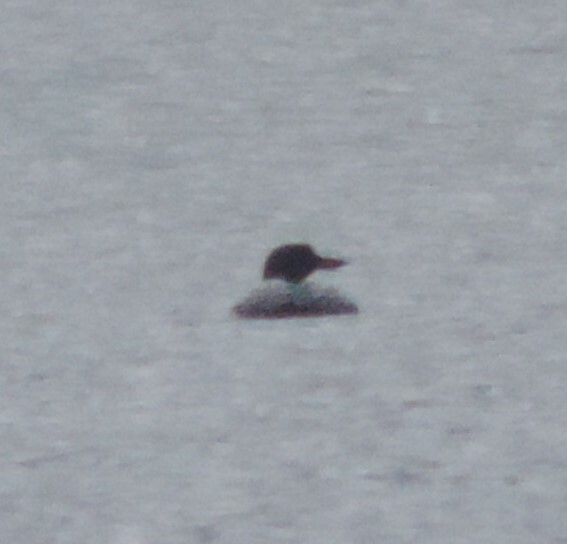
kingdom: Animalia
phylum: Chordata
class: Aves
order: Gaviiformes
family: Gaviidae
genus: Gavia
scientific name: Gavia immer
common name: Common loon
